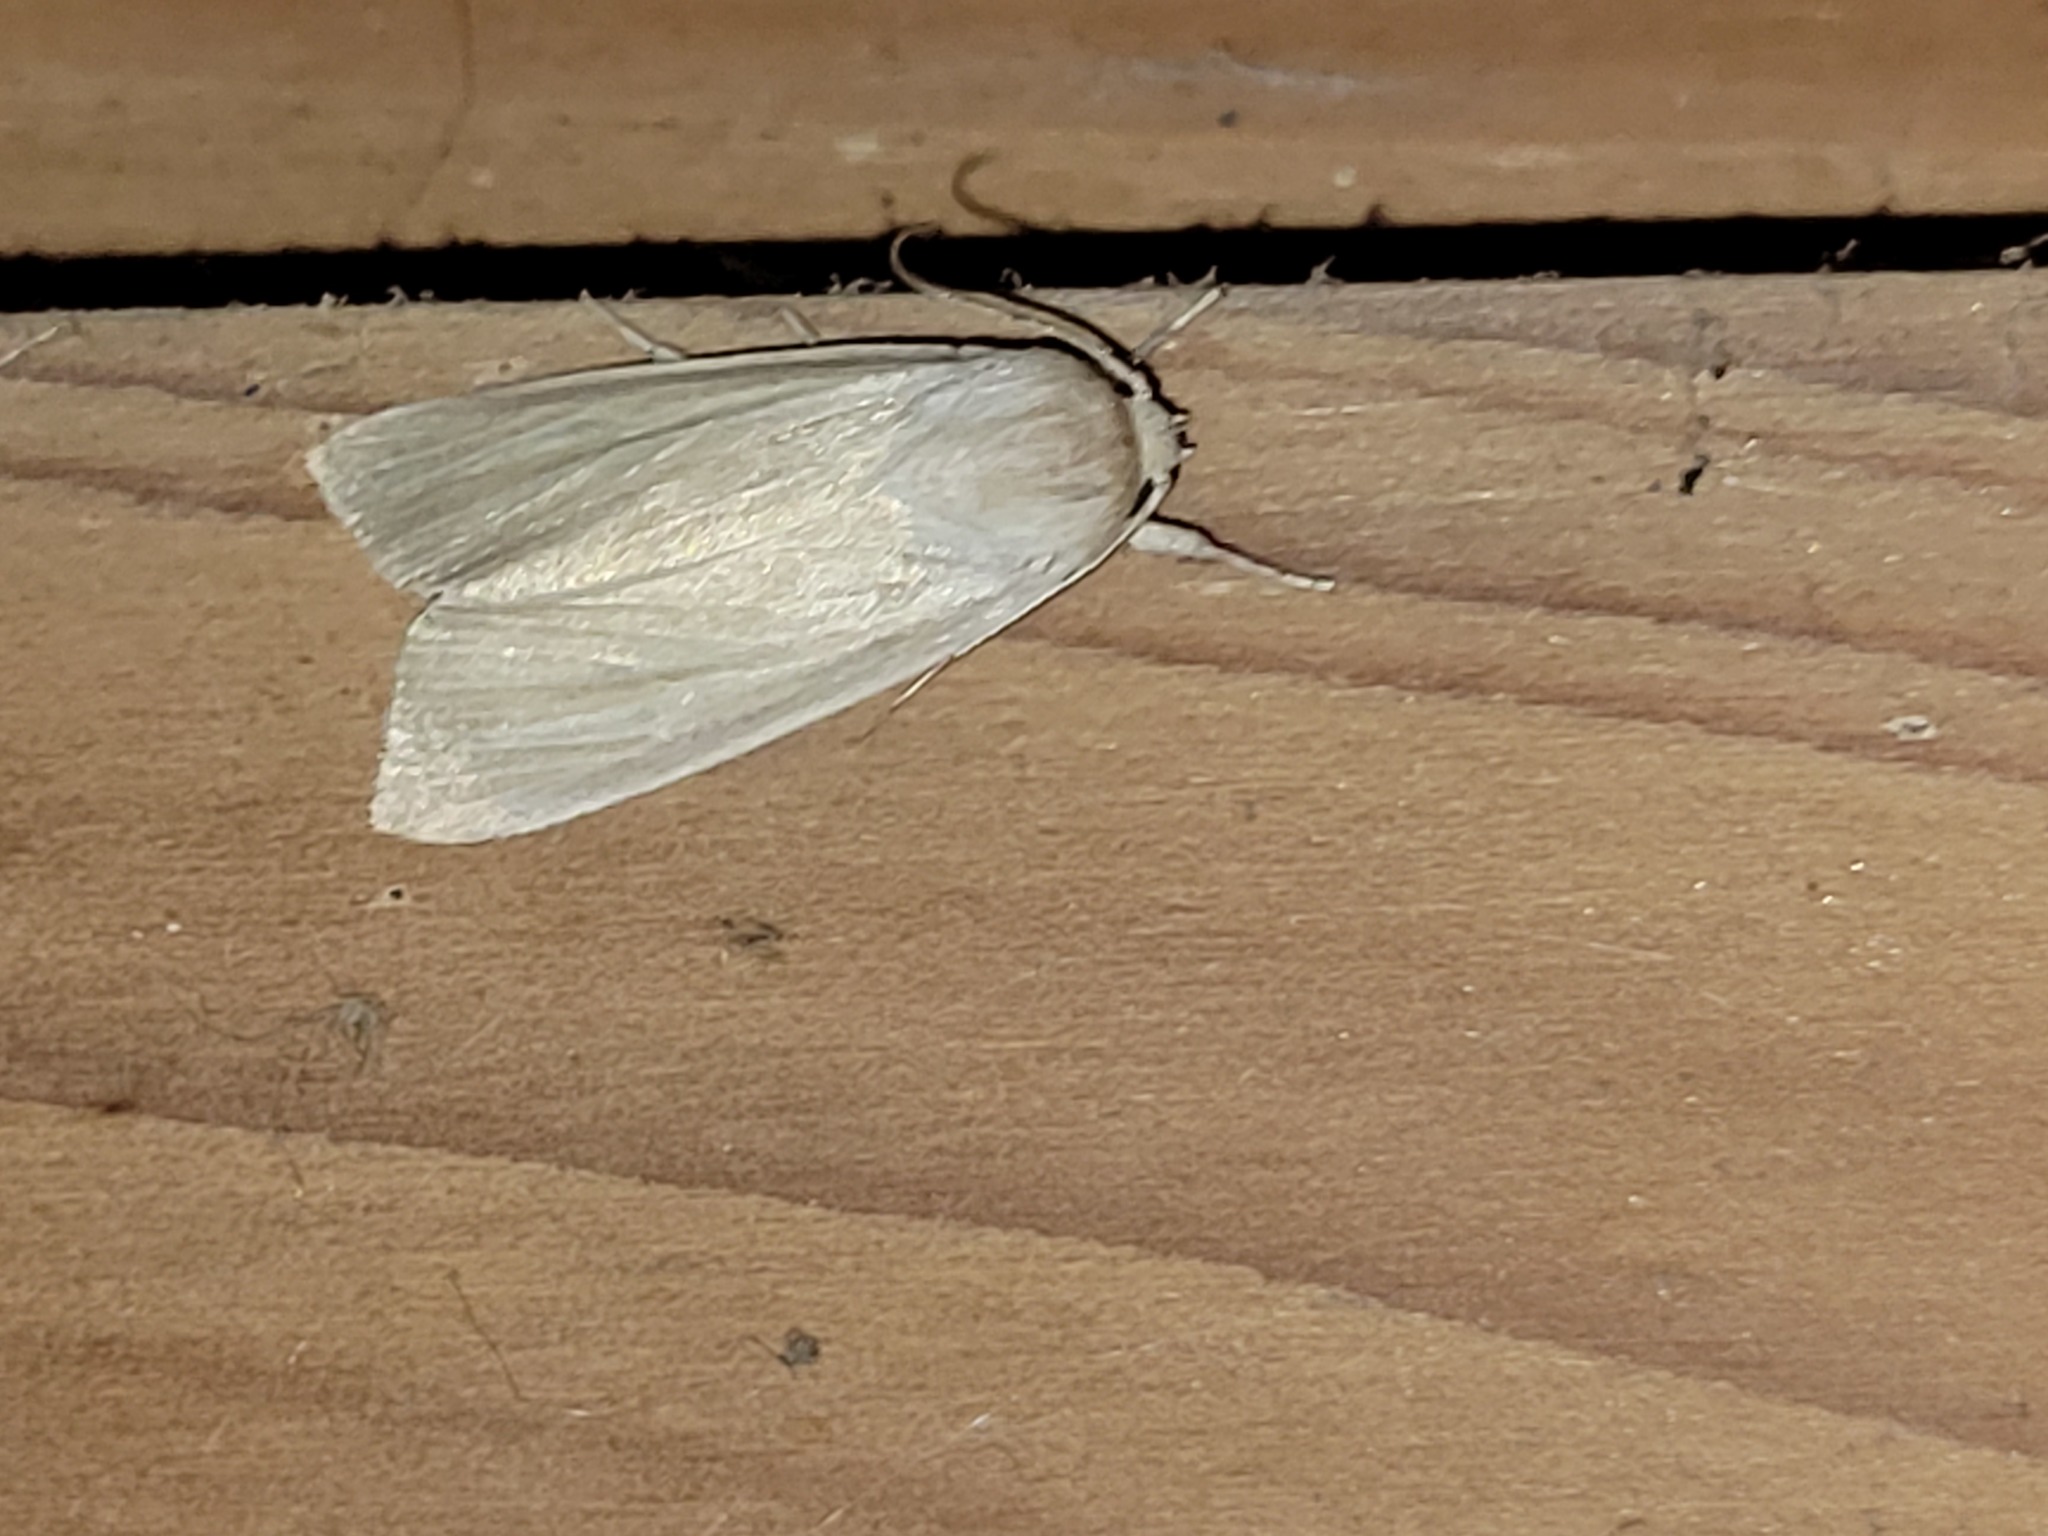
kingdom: Animalia
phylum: Arthropoda
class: Insecta
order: Lepidoptera
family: Noctuidae
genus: Acronicta
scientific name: Acronicta insularis
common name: Henry's marsh moth
